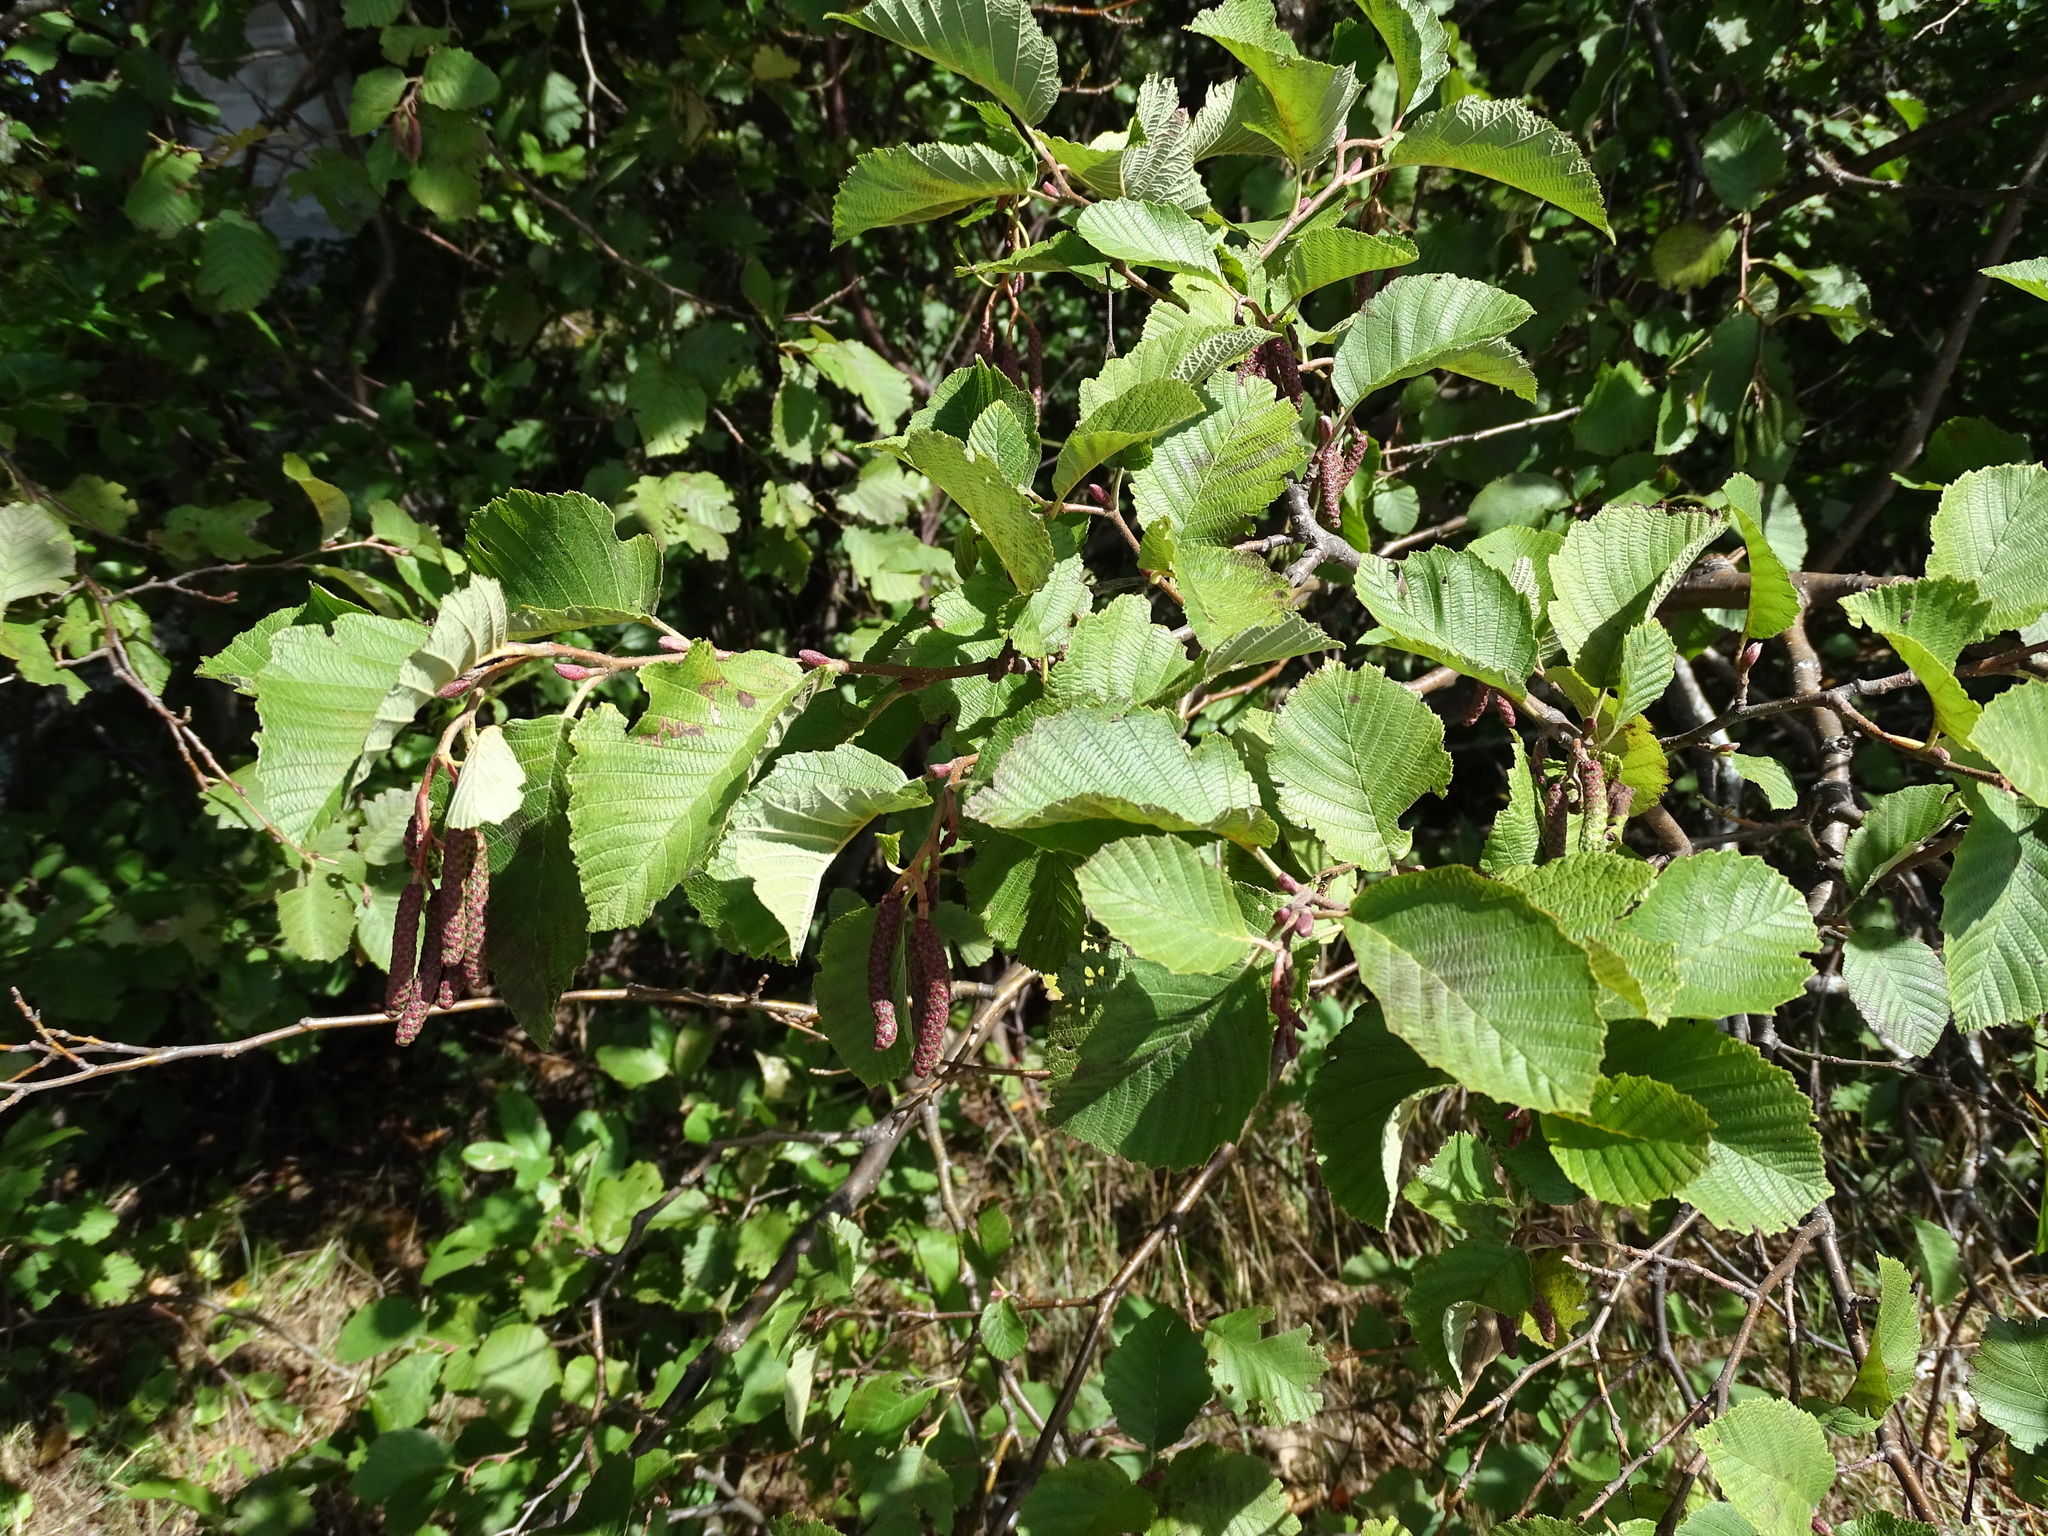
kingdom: Plantae
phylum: Tracheophyta
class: Magnoliopsida
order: Fagales
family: Betulaceae
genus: Alnus
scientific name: Alnus incana
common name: Grey alder
